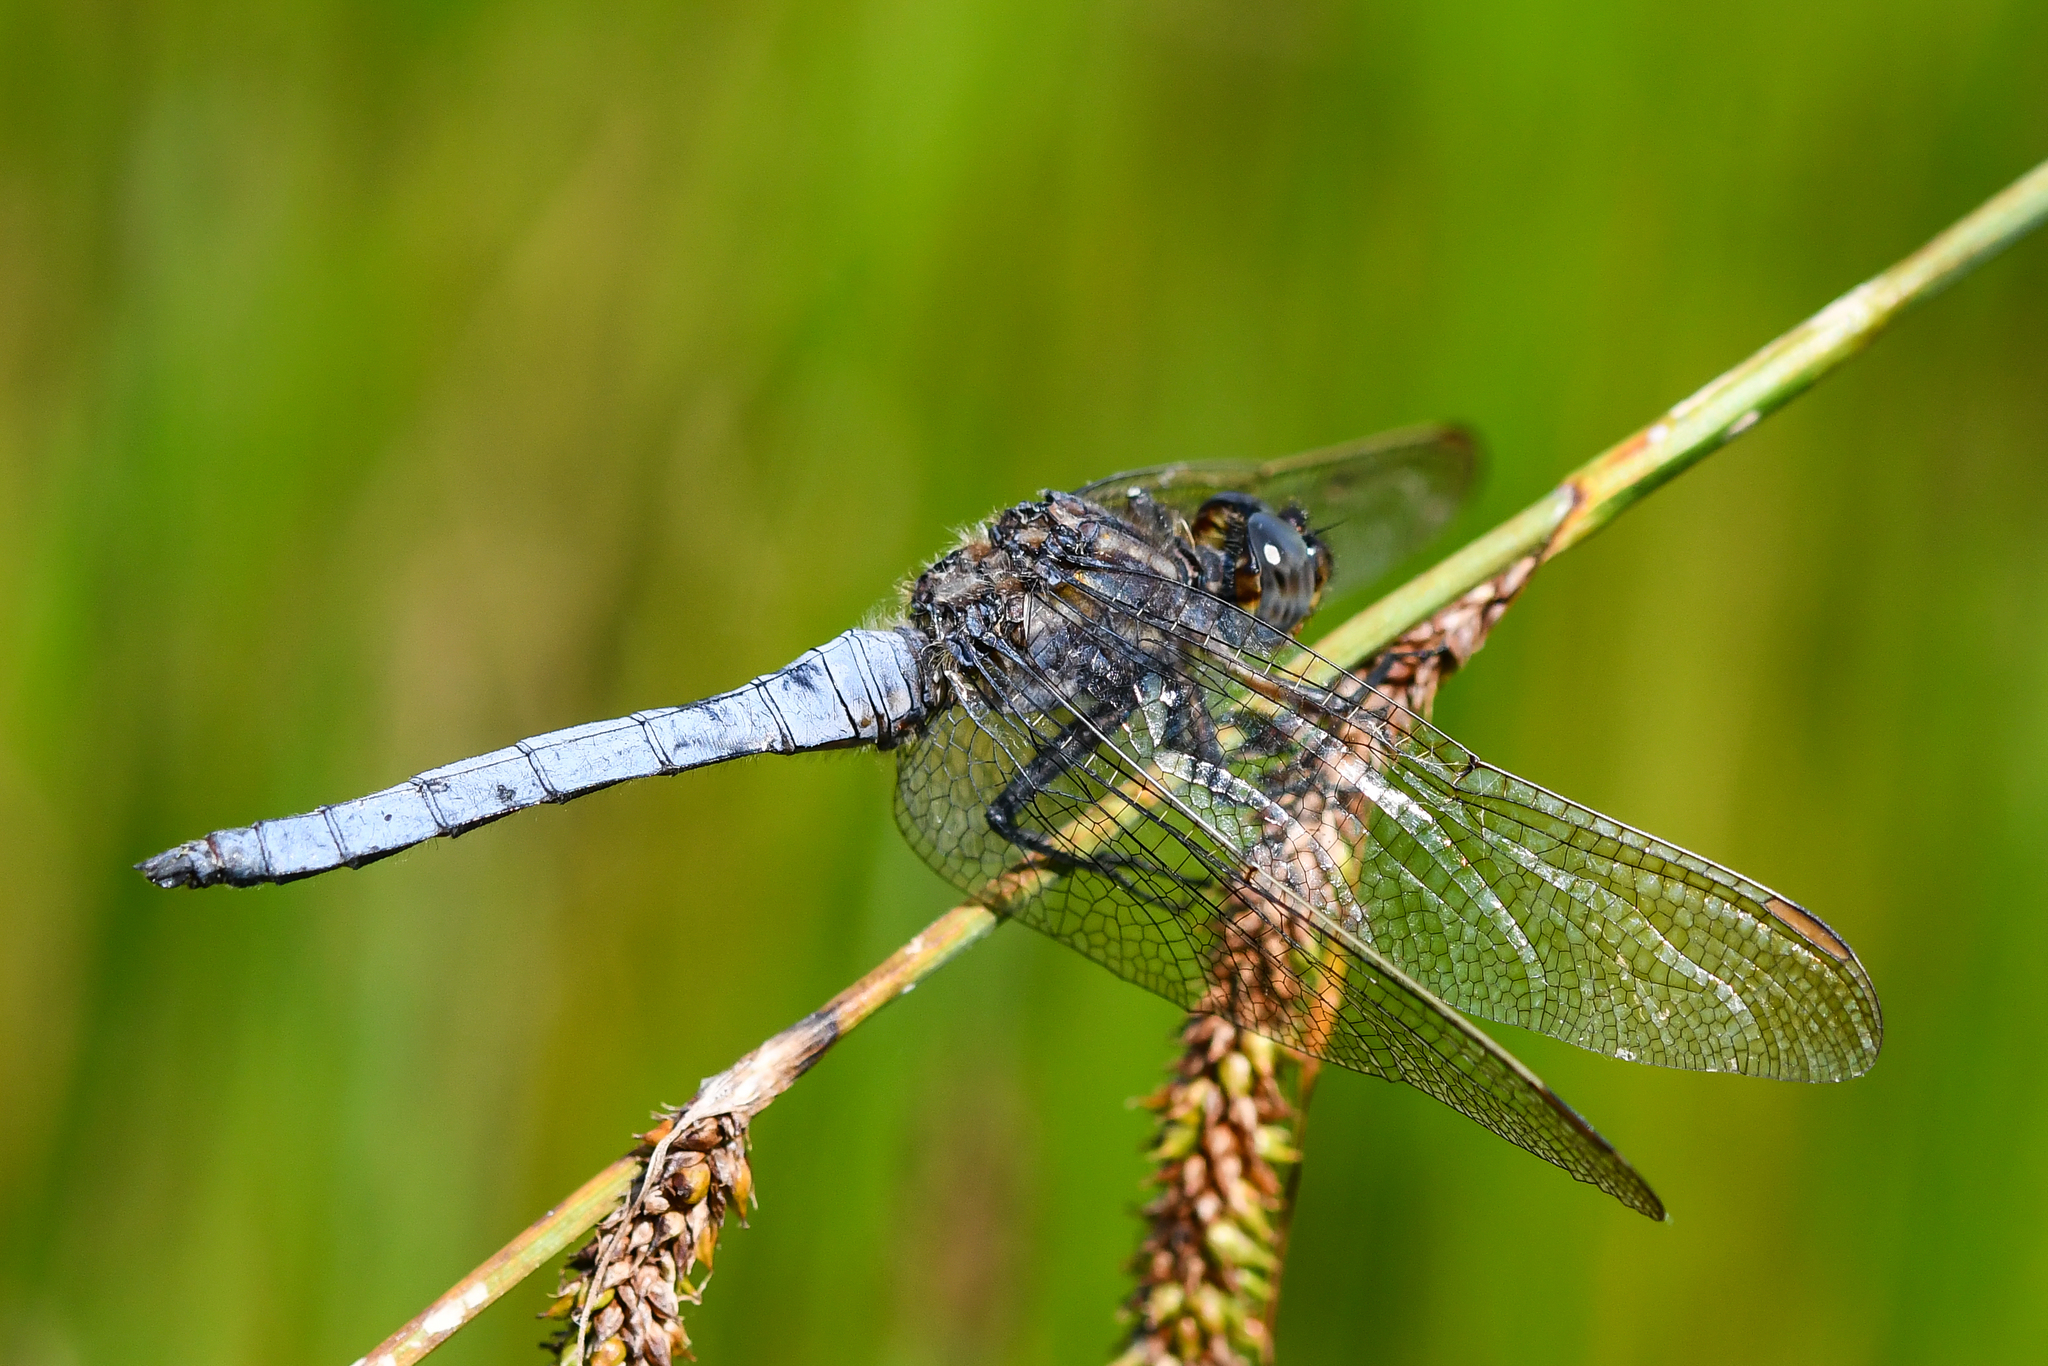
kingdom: Animalia
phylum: Arthropoda
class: Insecta
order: Odonata
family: Libellulidae
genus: Orthetrum
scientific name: Orthetrum coerulescens
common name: Keeled skimmer
